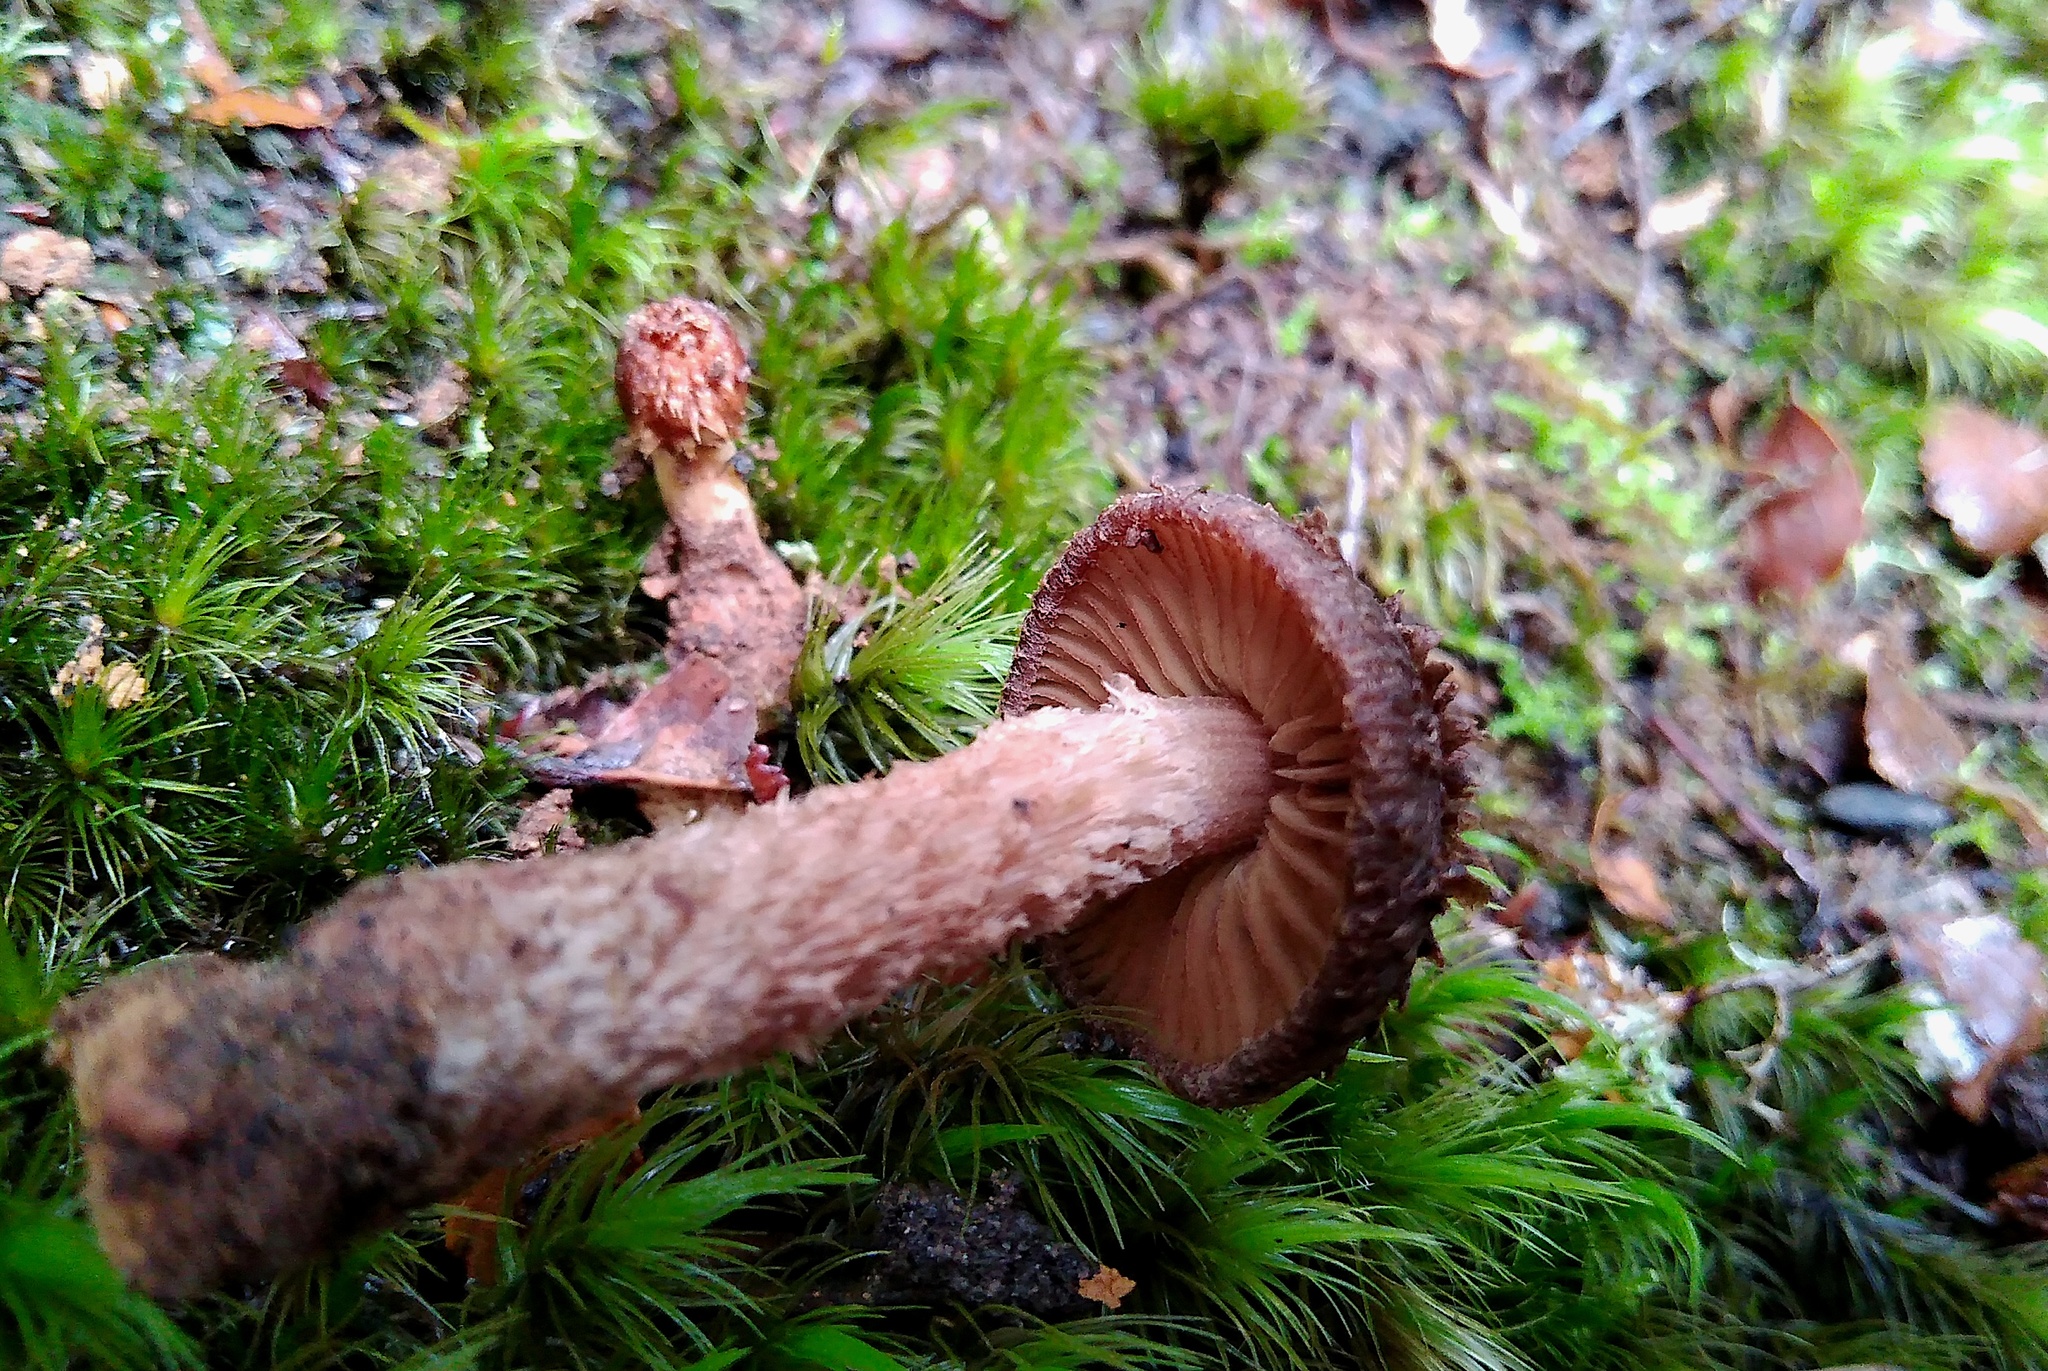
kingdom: Fungi
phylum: Basidiomycota
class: Agaricomycetes
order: Agaricales
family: Inocybaceae
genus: Inosperma
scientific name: Inosperma calamistratoides
